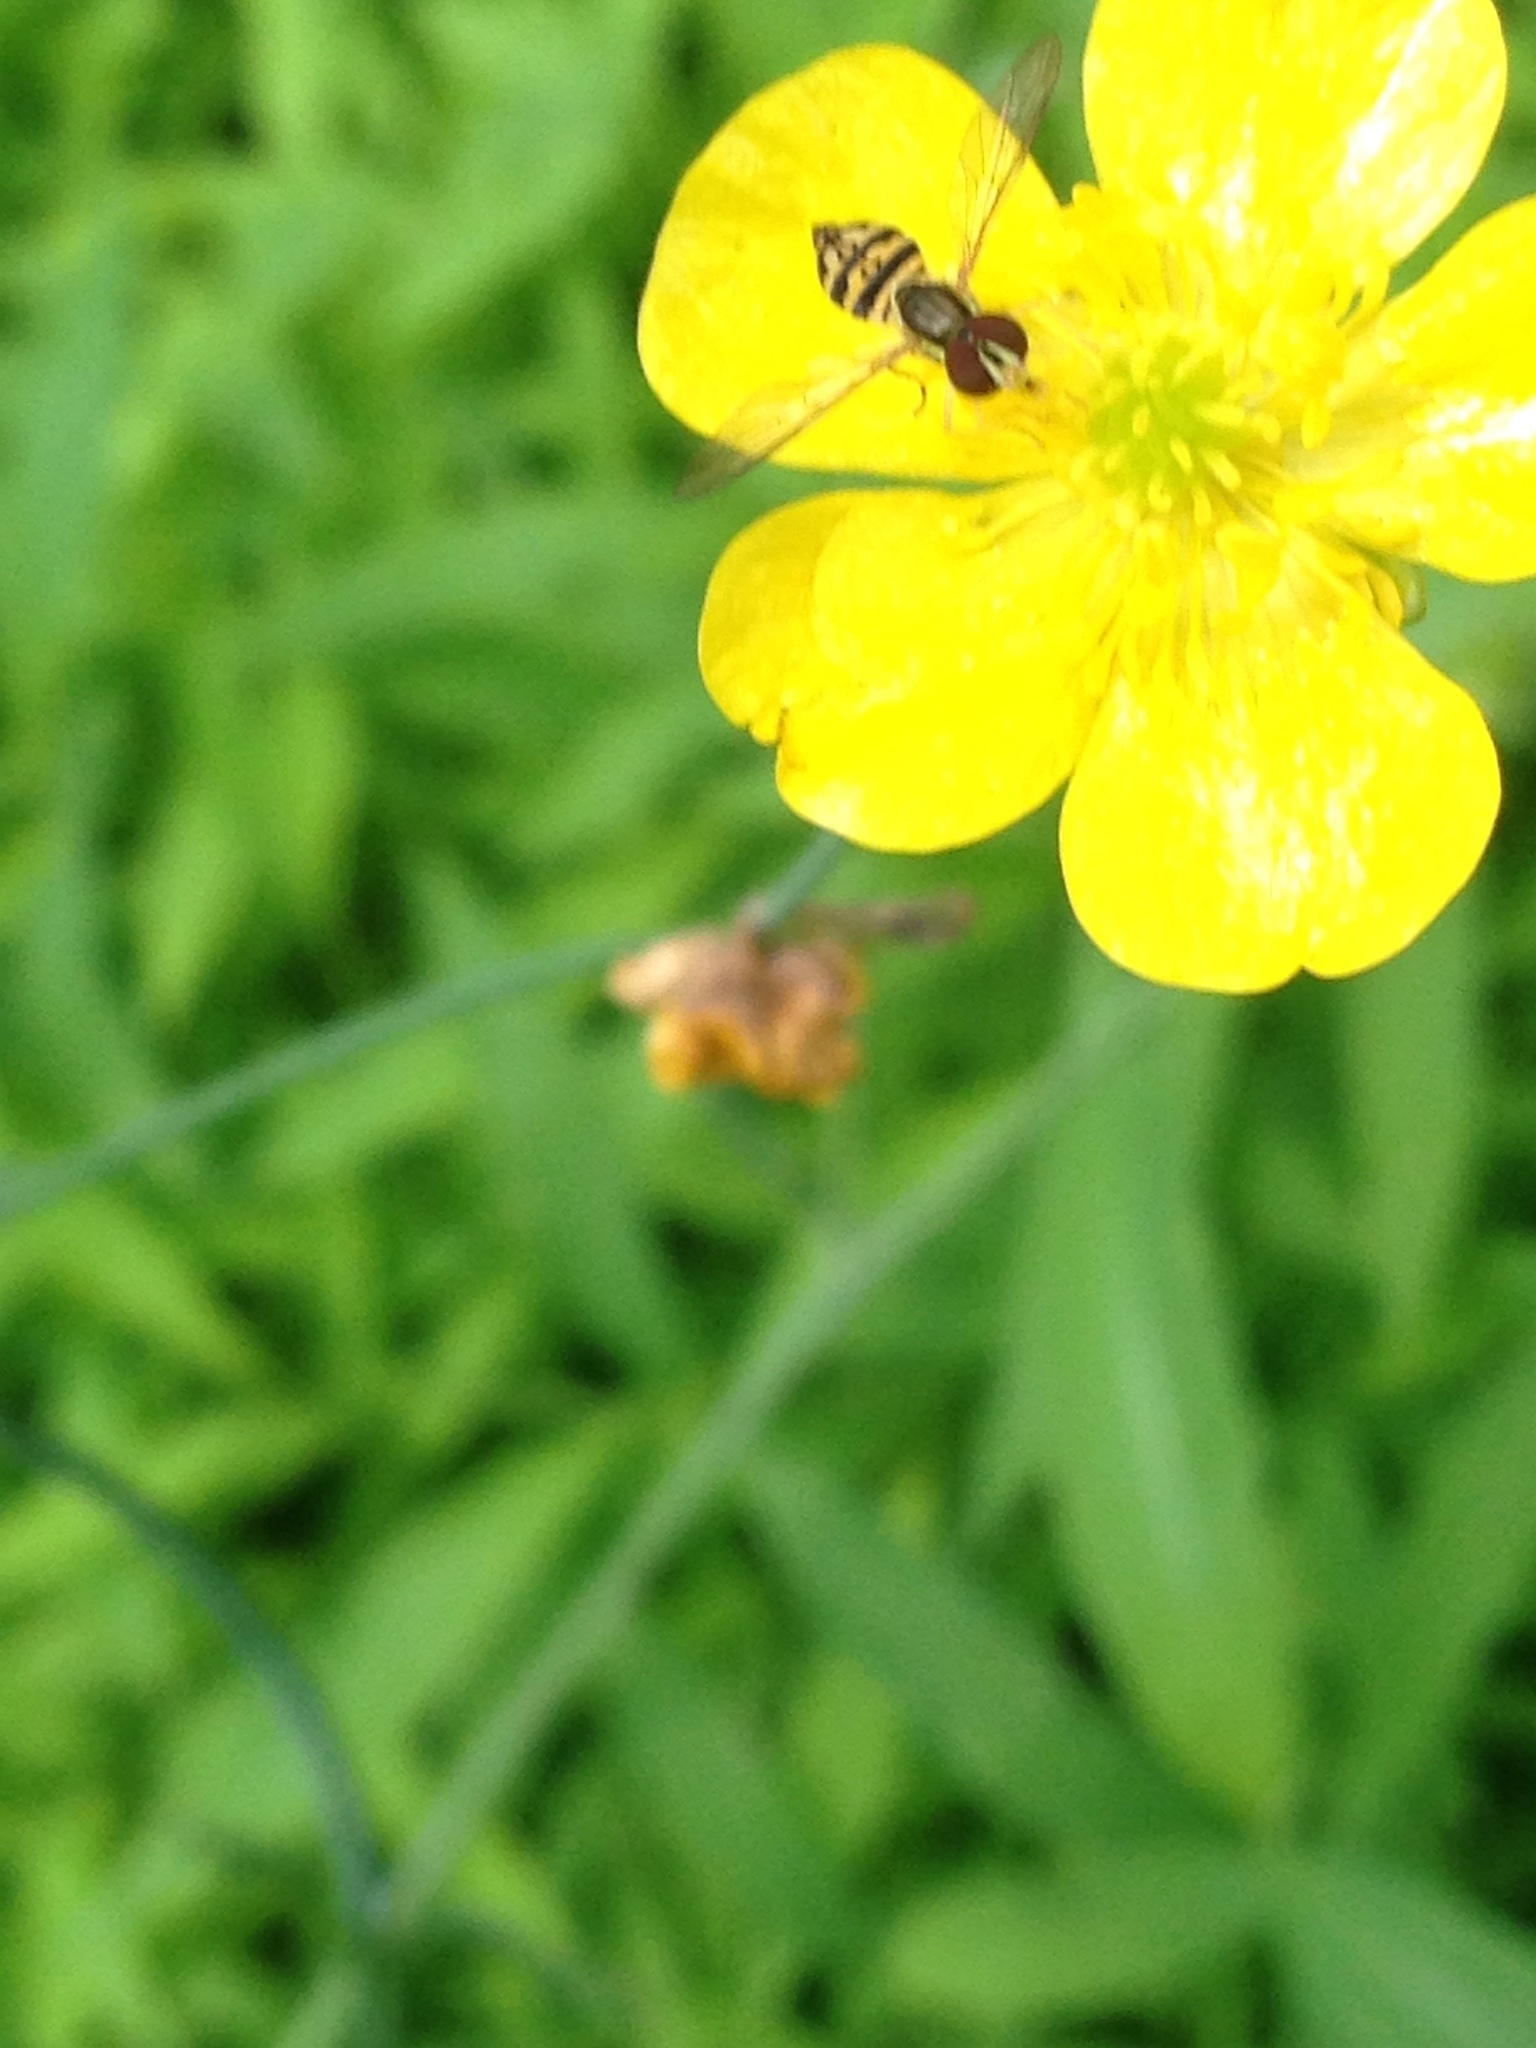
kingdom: Animalia
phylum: Arthropoda
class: Insecta
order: Diptera
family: Syrphidae
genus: Toxomerus
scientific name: Toxomerus geminatus
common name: Eastern calligrapher
